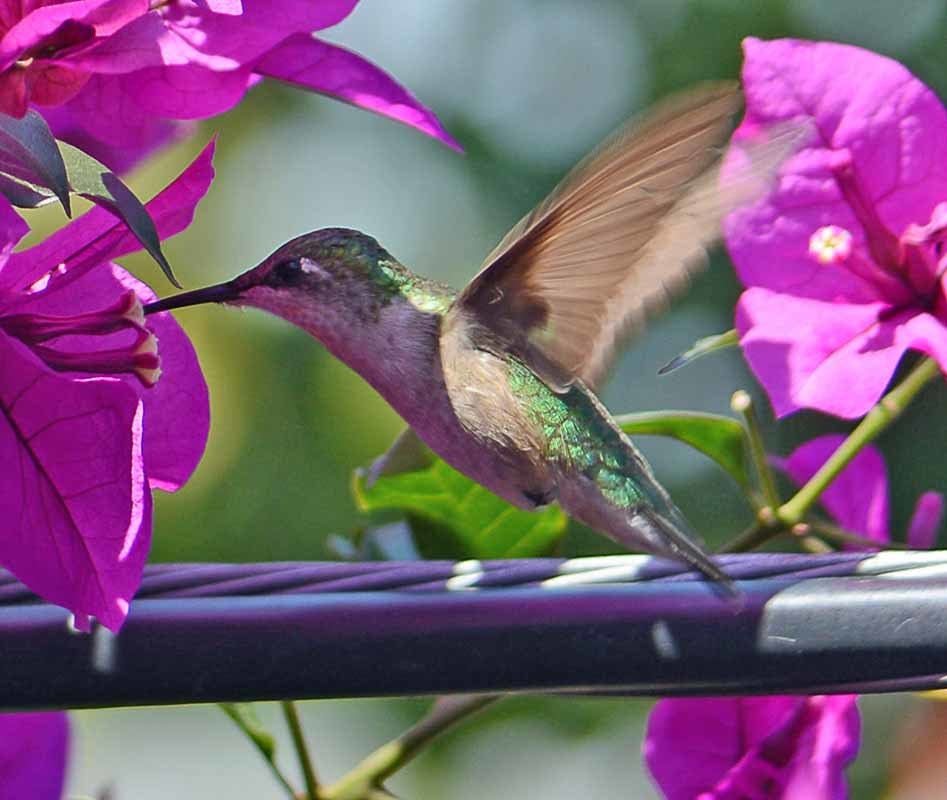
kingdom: Animalia
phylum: Chordata
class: Aves
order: Apodiformes
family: Trochilidae
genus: Archilochus
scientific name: Archilochus colubris
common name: Ruby-throated hummingbird
